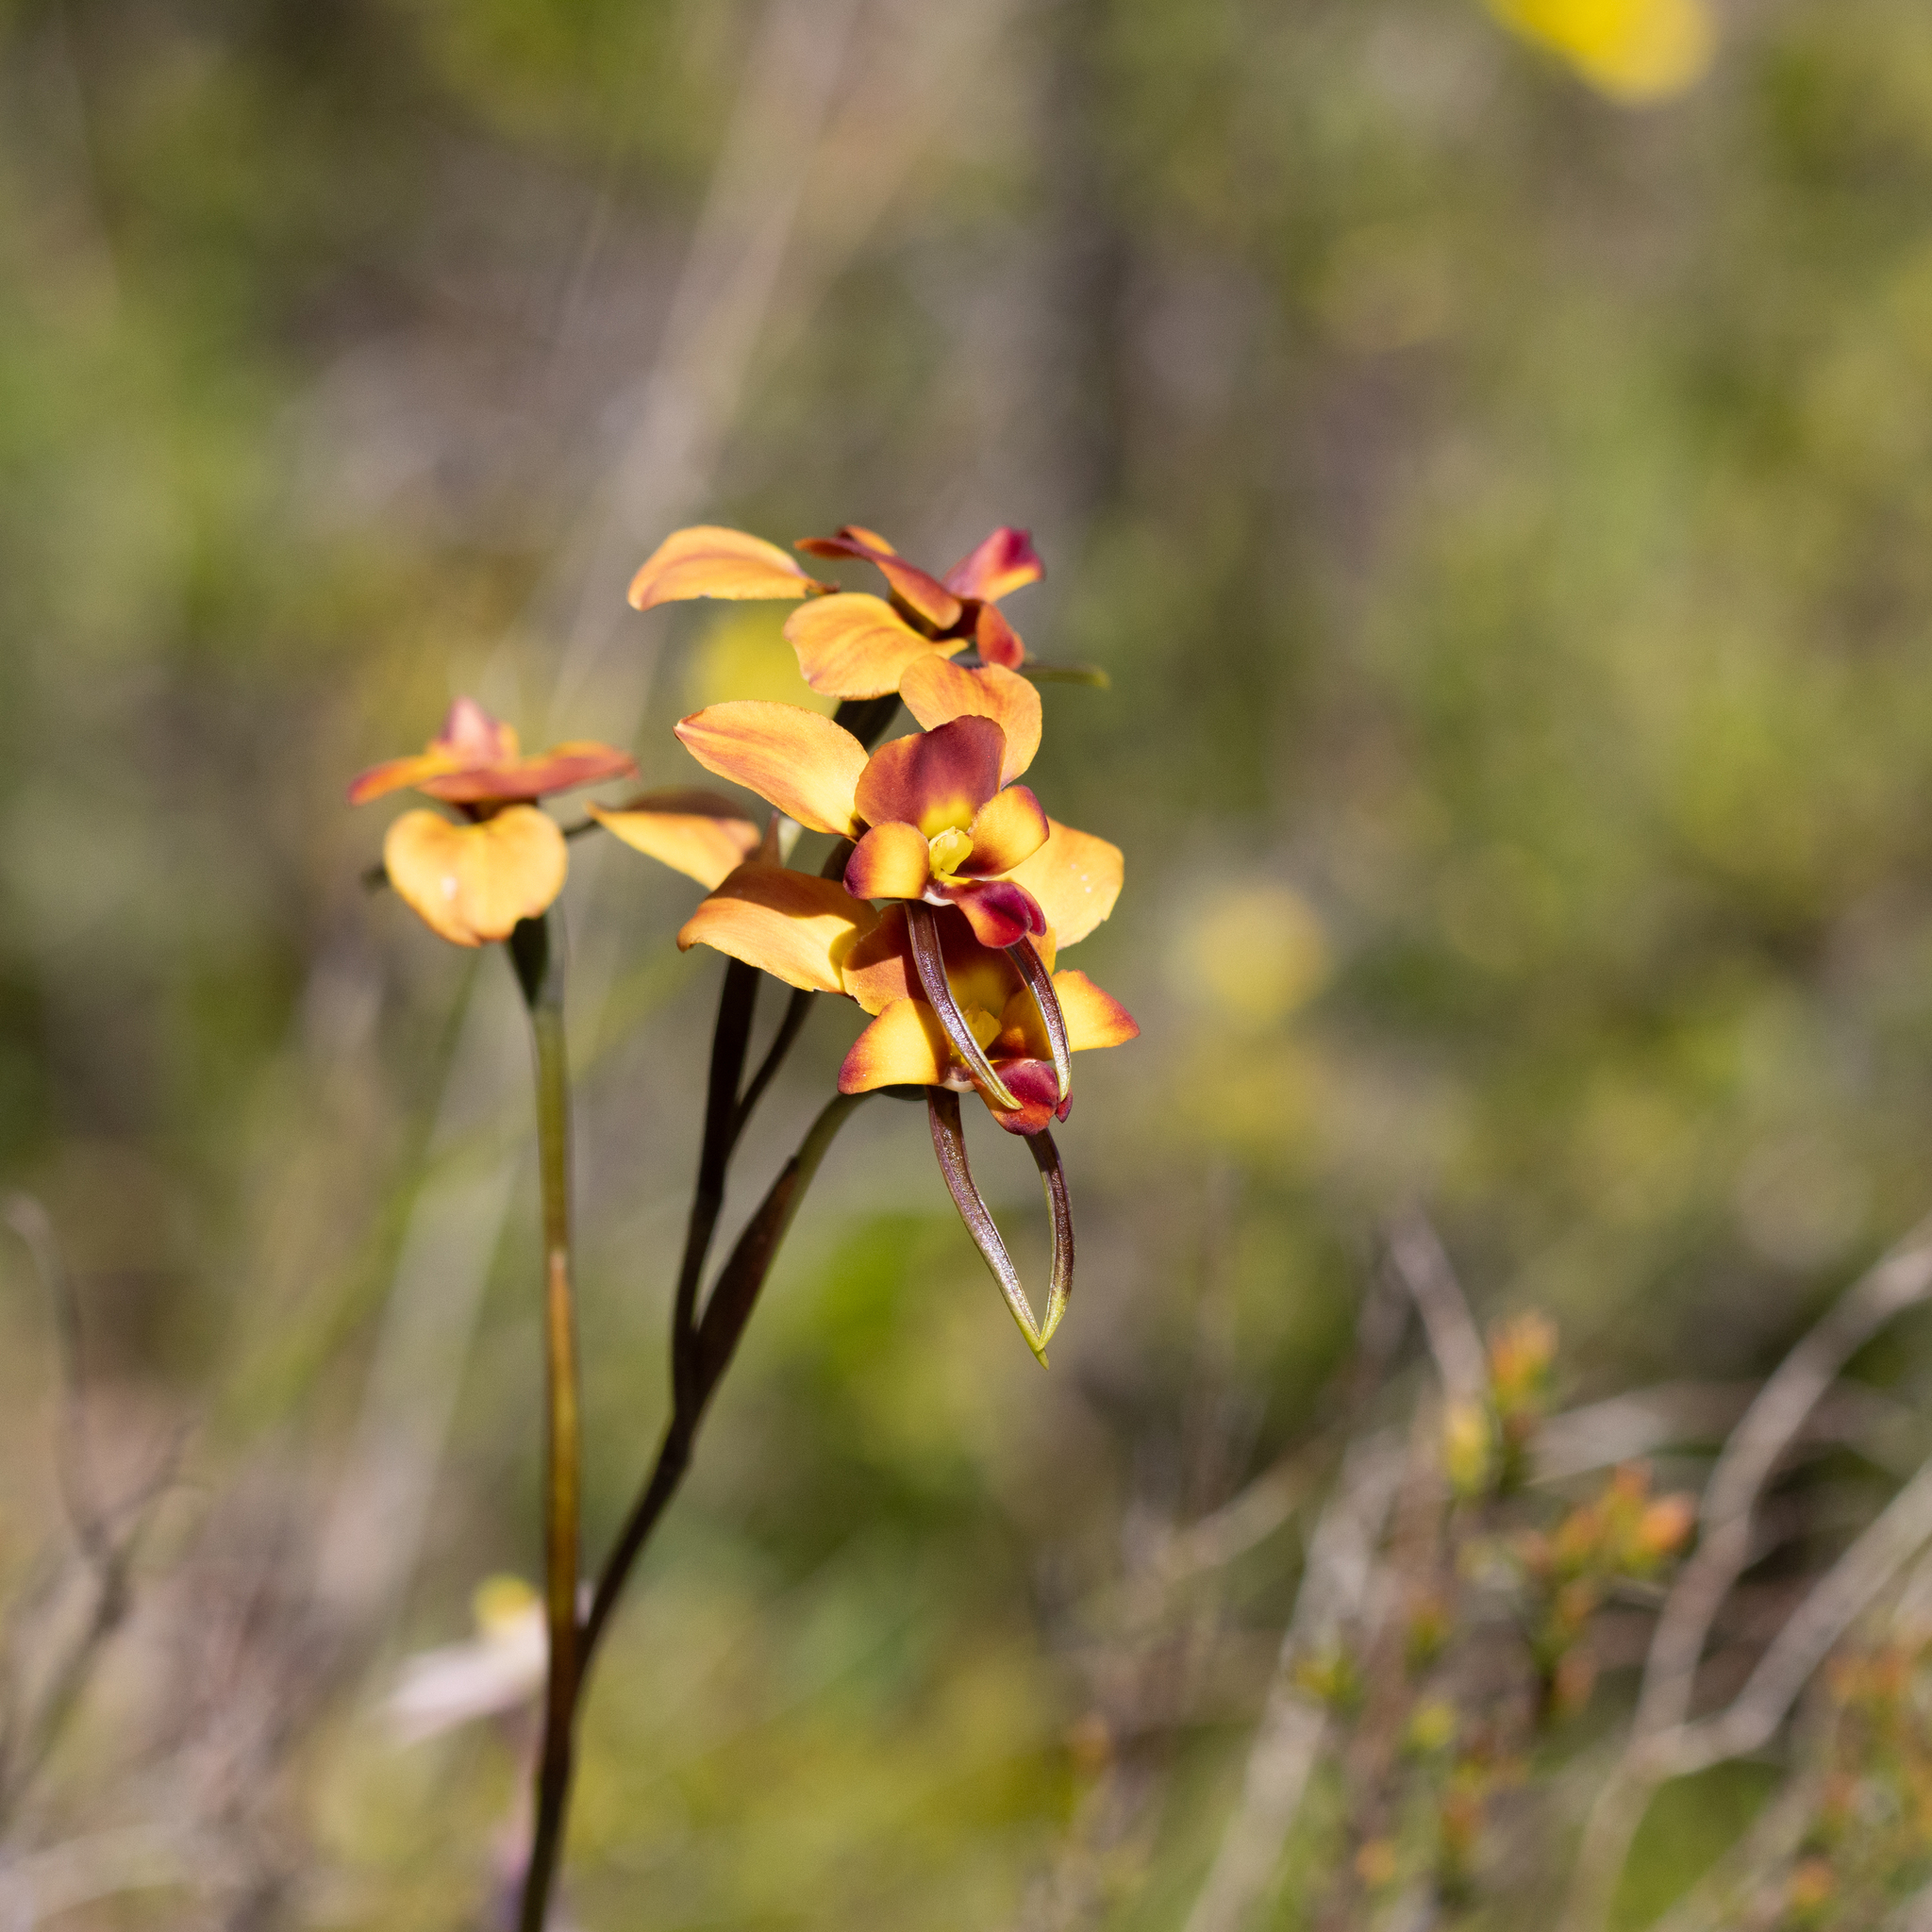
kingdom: Plantae
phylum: Tracheophyta
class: Liliopsida
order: Asparagales
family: Orchidaceae
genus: Diuris
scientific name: Diuris orientis
